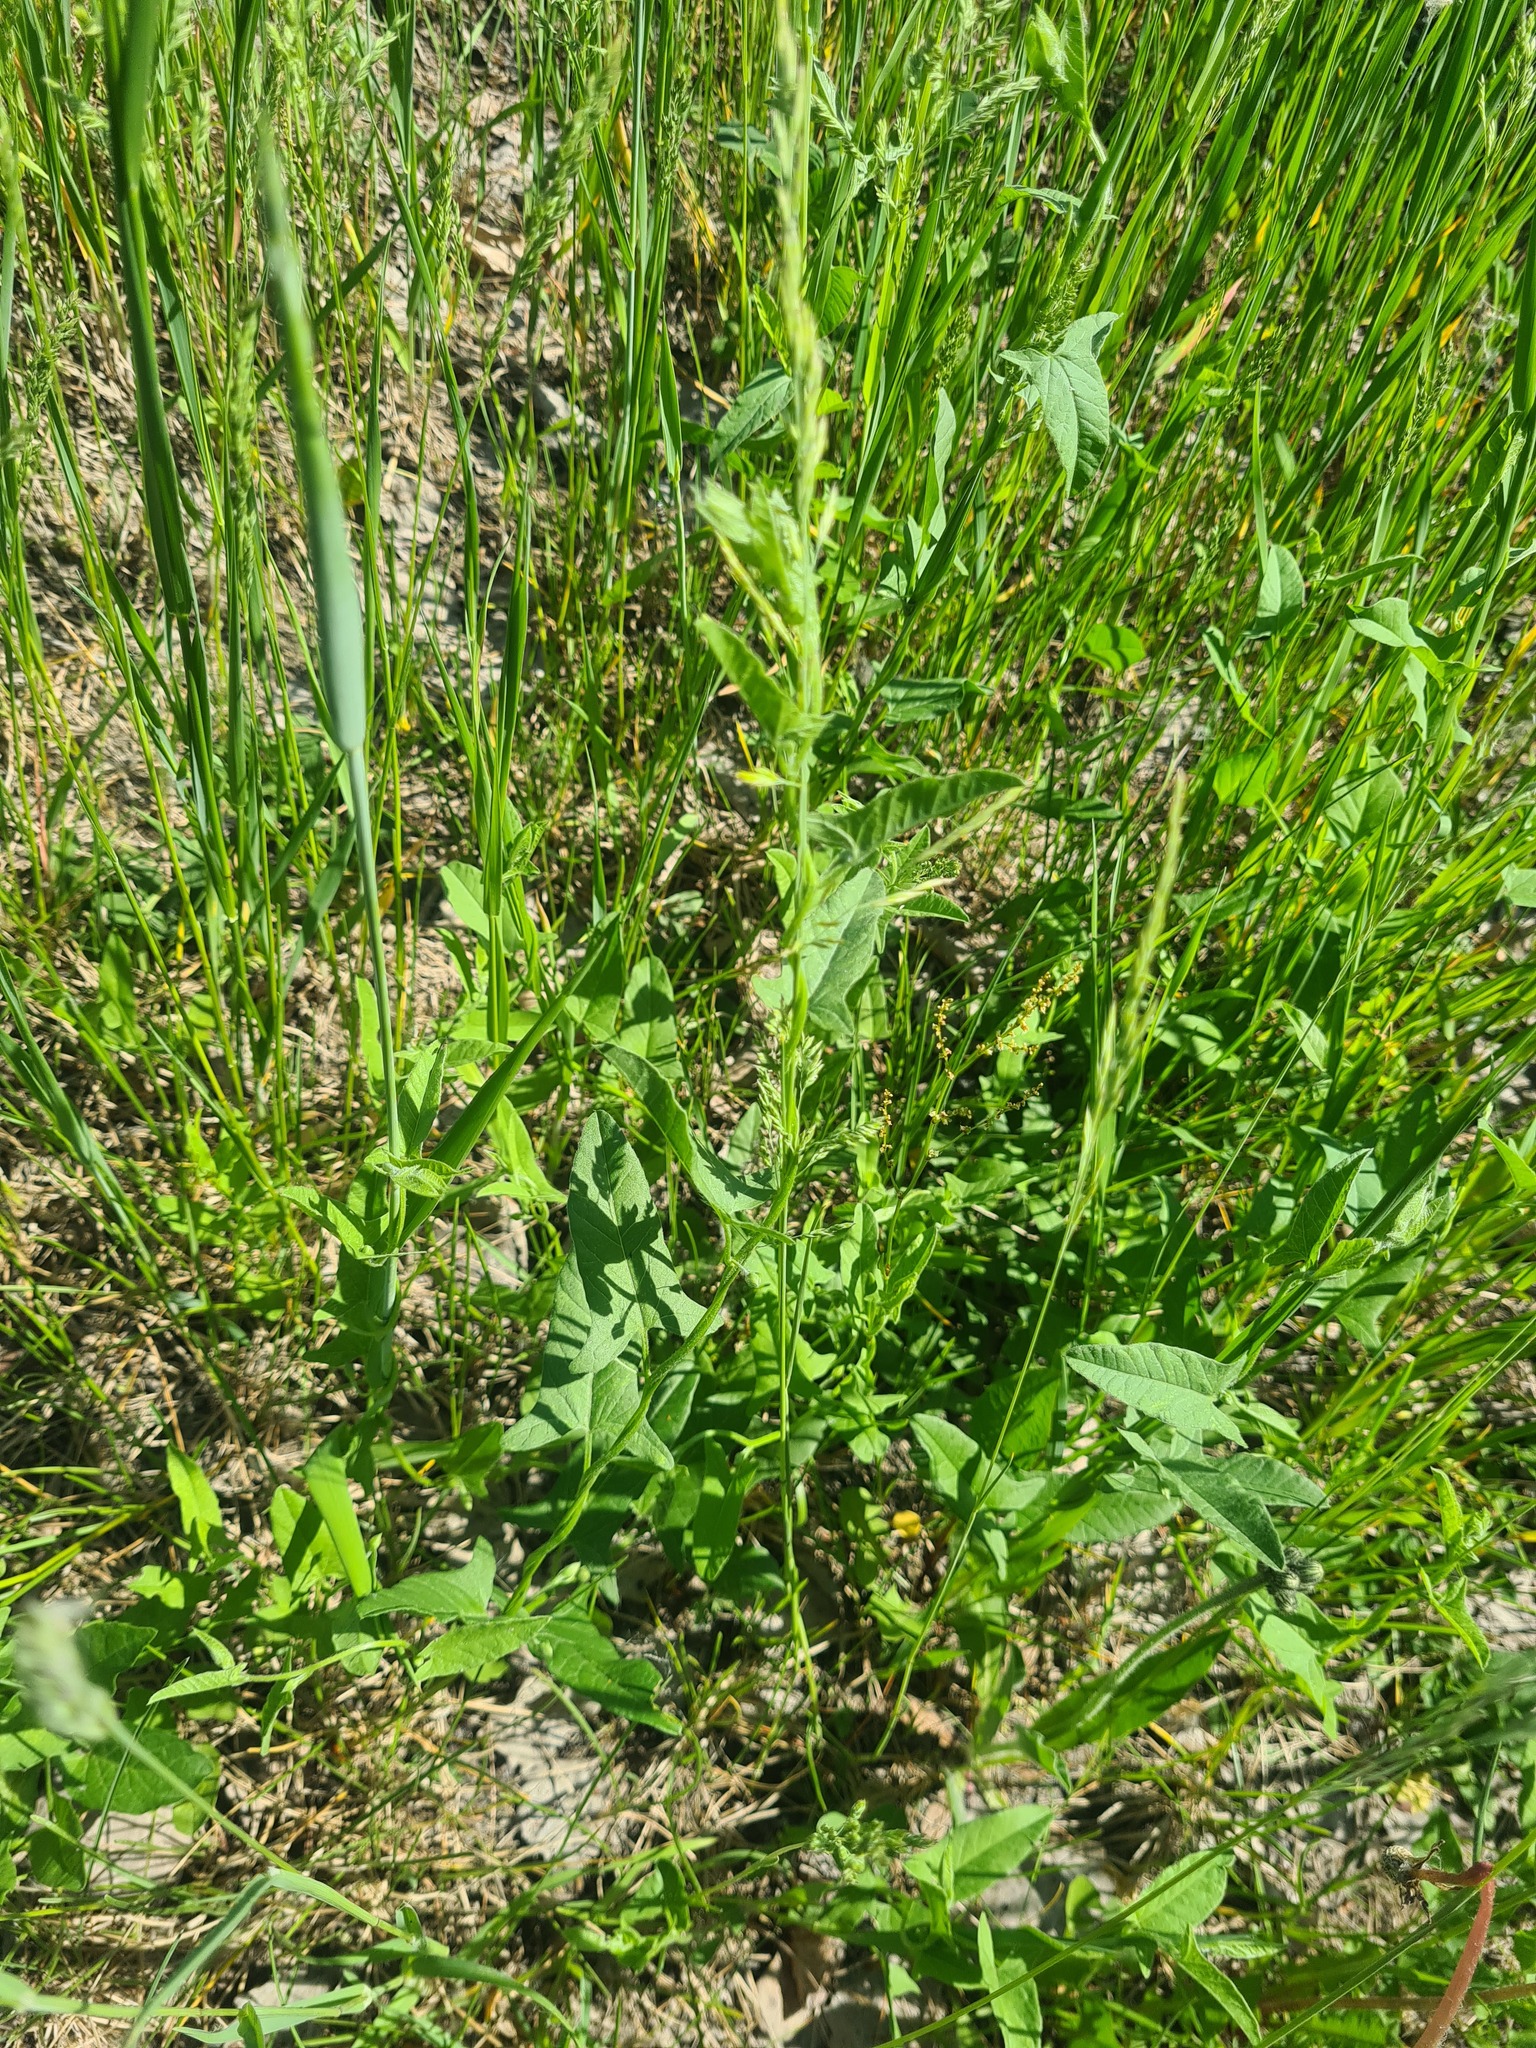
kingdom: Plantae
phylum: Tracheophyta
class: Magnoliopsida
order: Solanales
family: Convolvulaceae
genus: Convolvulus
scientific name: Convolvulus arvensis
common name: Field bindweed
